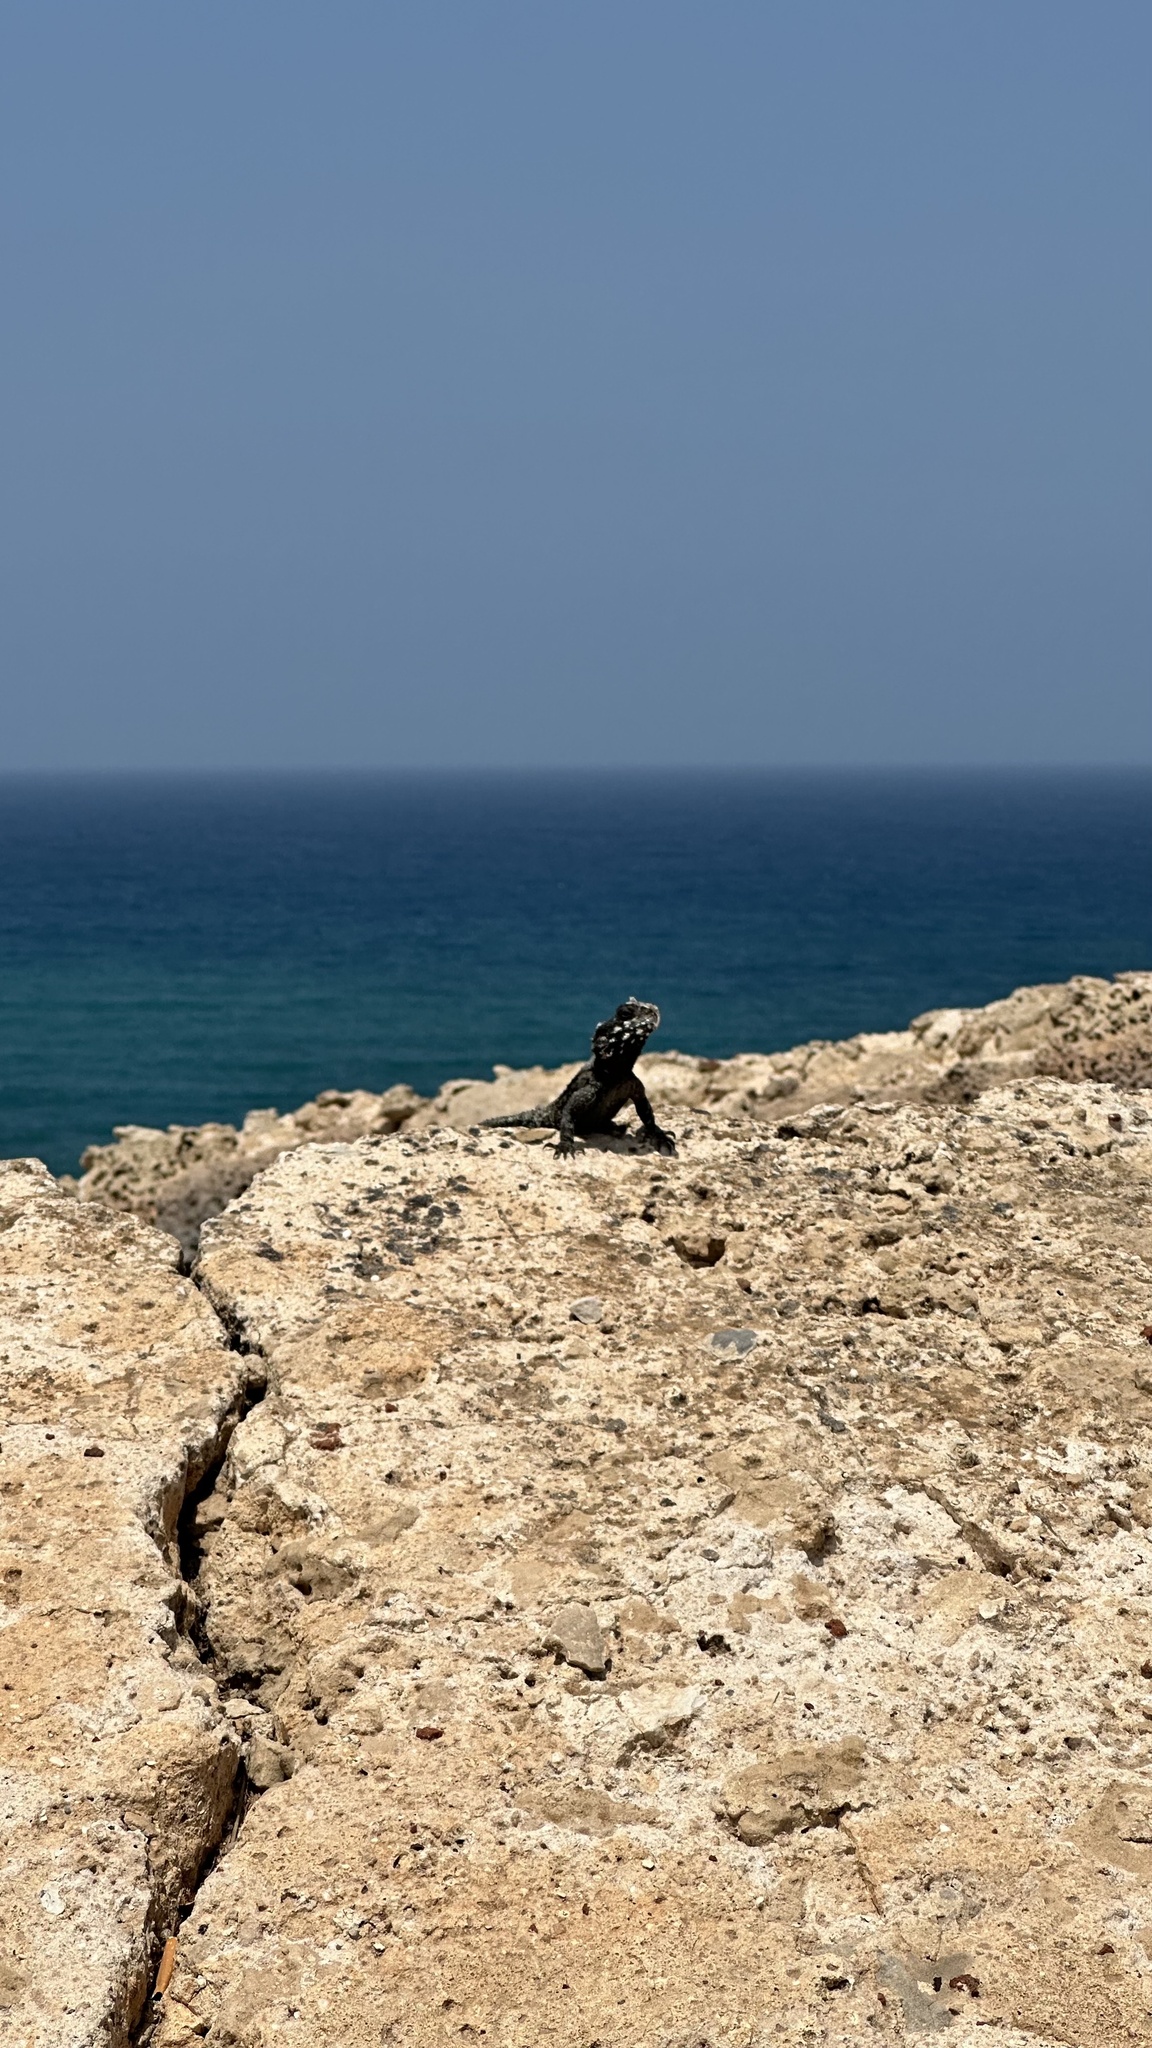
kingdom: Animalia
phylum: Chordata
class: Squamata
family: Agamidae
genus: Laudakia
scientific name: Laudakia vulgaris
